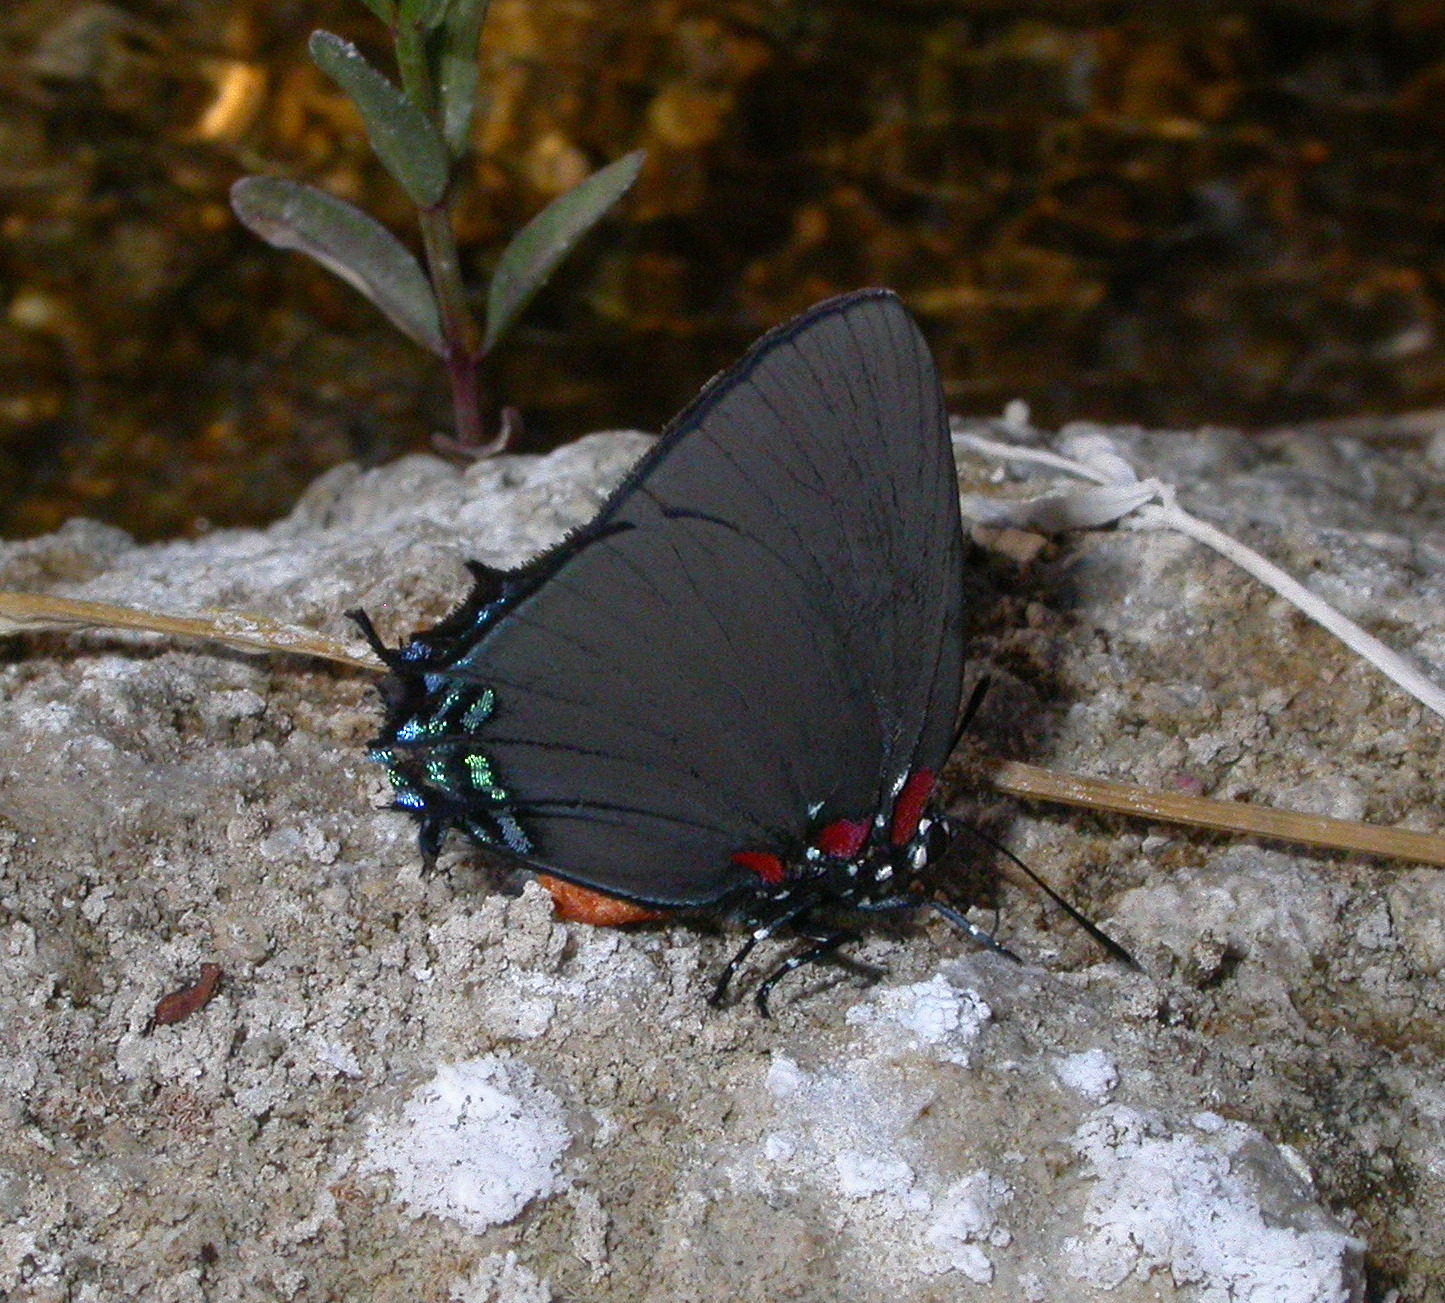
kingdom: Animalia
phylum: Arthropoda
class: Insecta
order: Lepidoptera
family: Lycaenidae
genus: Atlides
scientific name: Atlides halesus
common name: Great purple hairstreak
